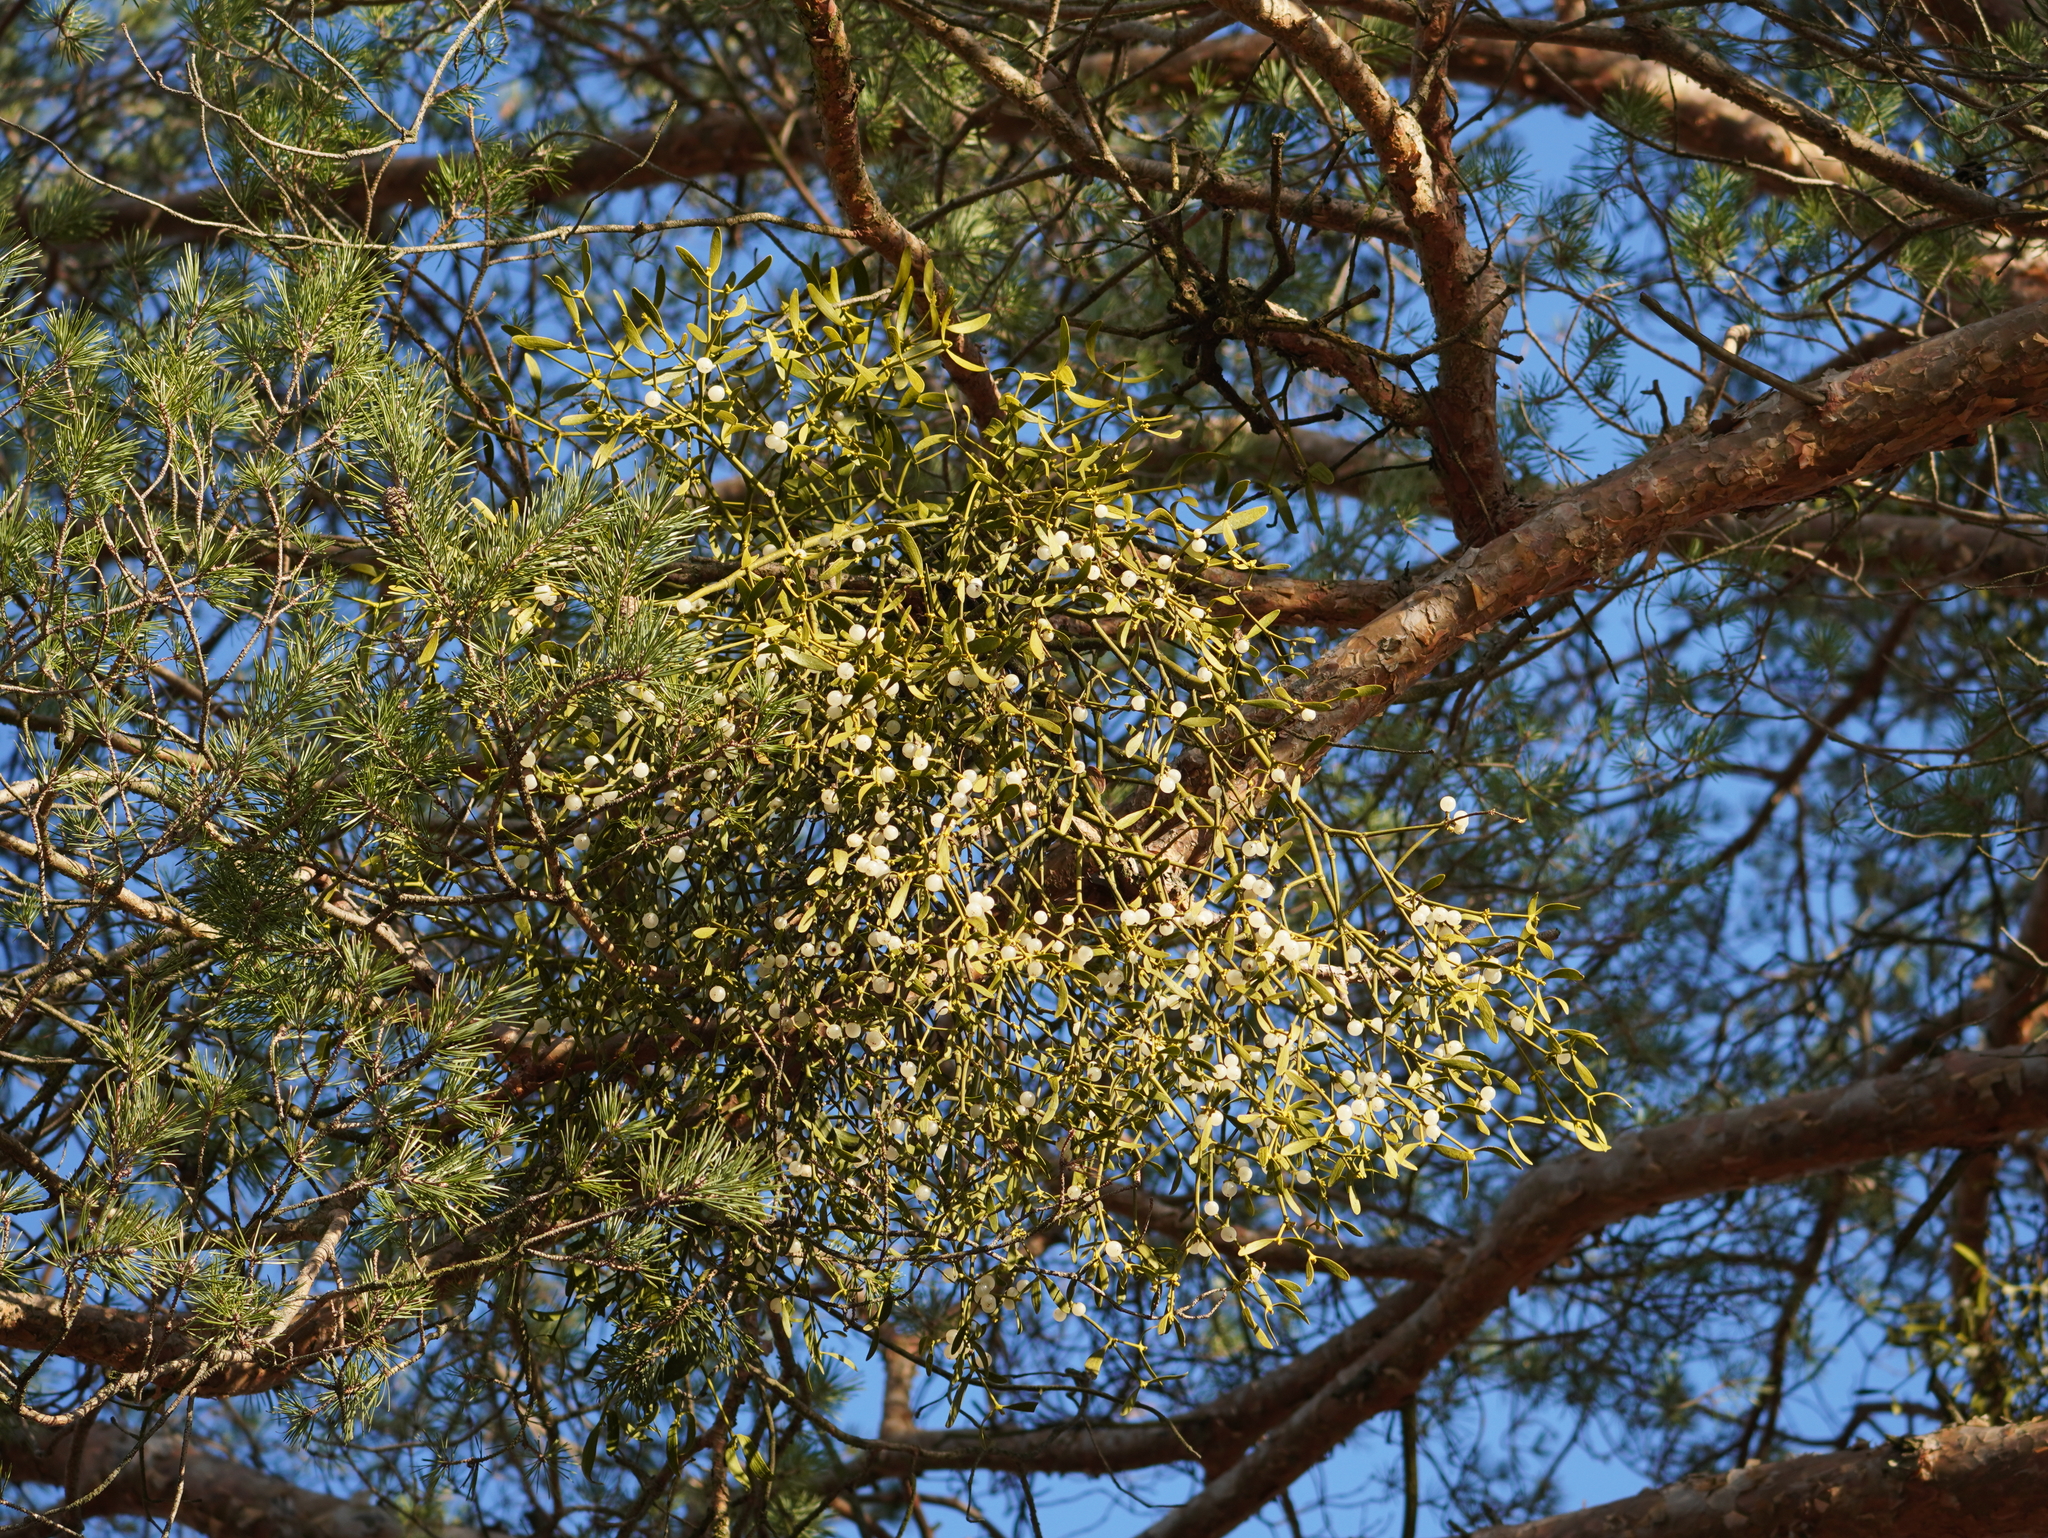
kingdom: Plantae
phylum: Tracheophyta
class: Magnoliopsida
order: Santalales
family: Viscaceae
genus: Viscum
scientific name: Viscum laxum
